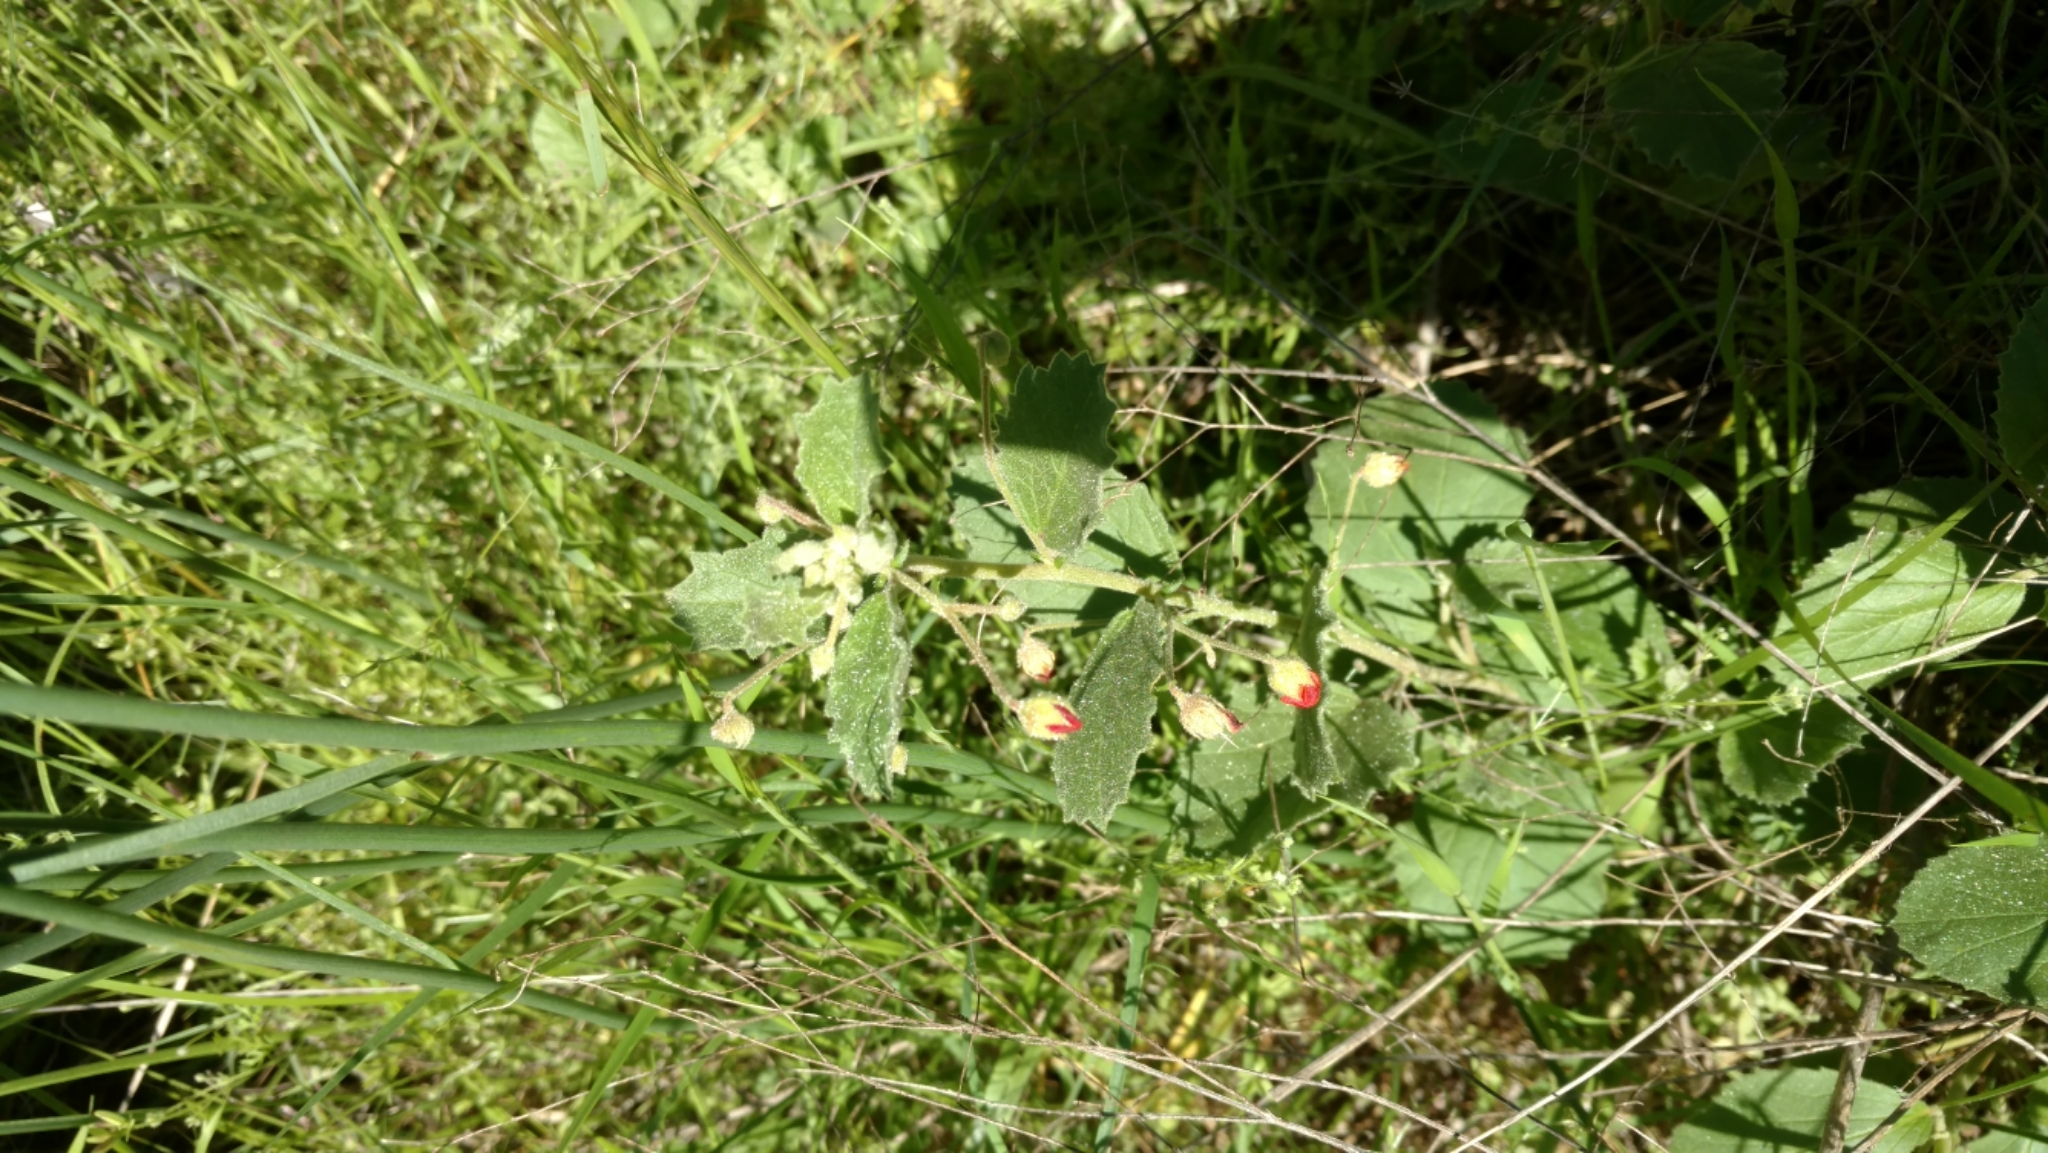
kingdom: Plantae
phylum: Tracheophyta
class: Magnoliopsida
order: Malvales
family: Malvaceae
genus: Hermannia
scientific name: Hermannia texana
